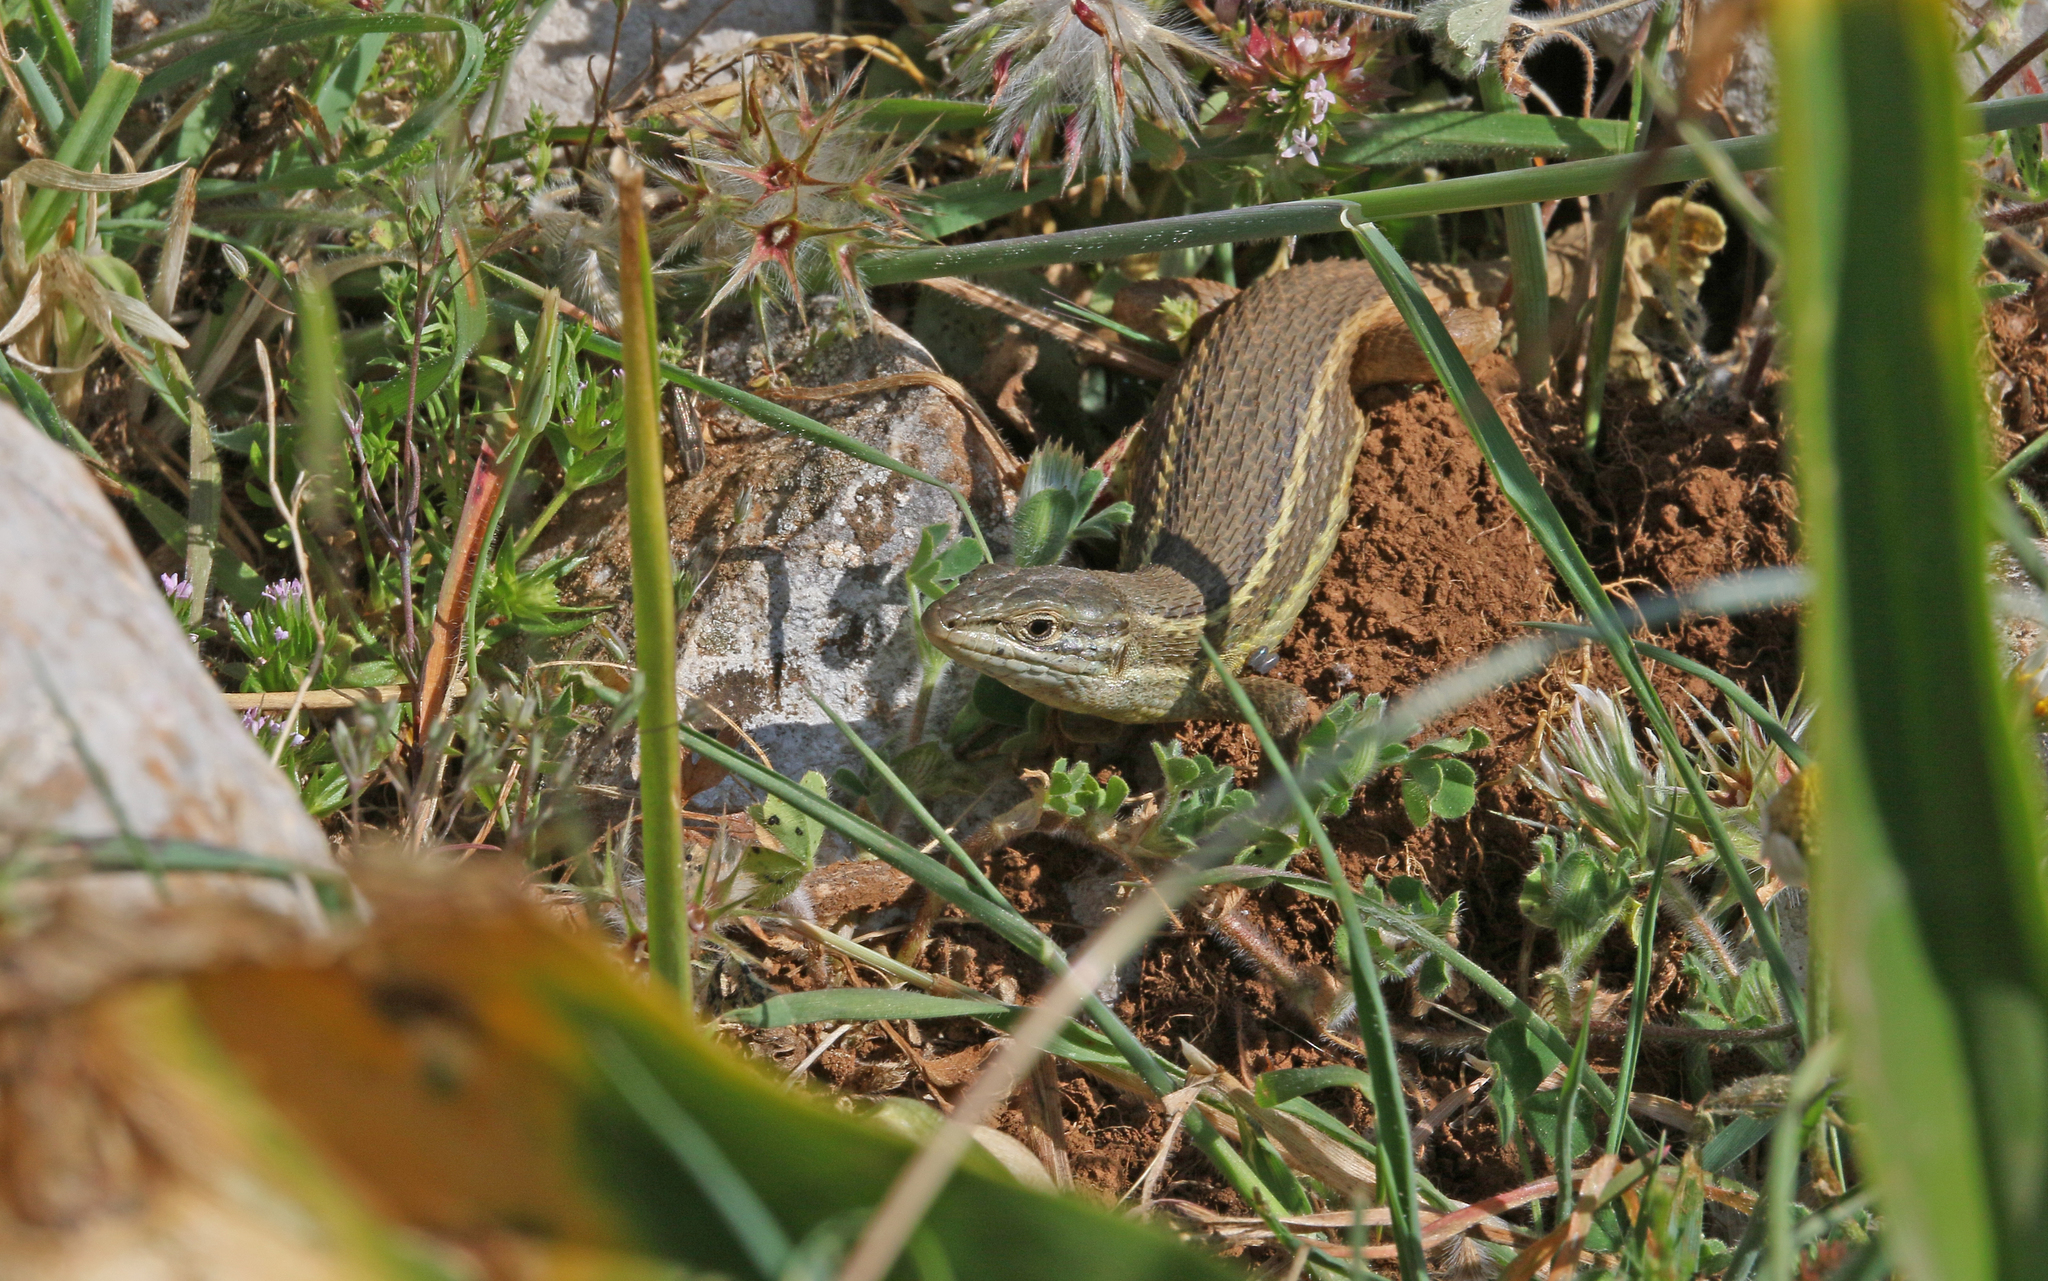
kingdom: Animalia
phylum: Chordata
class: Squamata
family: Lacertidae
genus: Psammodromus
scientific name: Psammodromus algirus
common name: Algerian psammodromus
